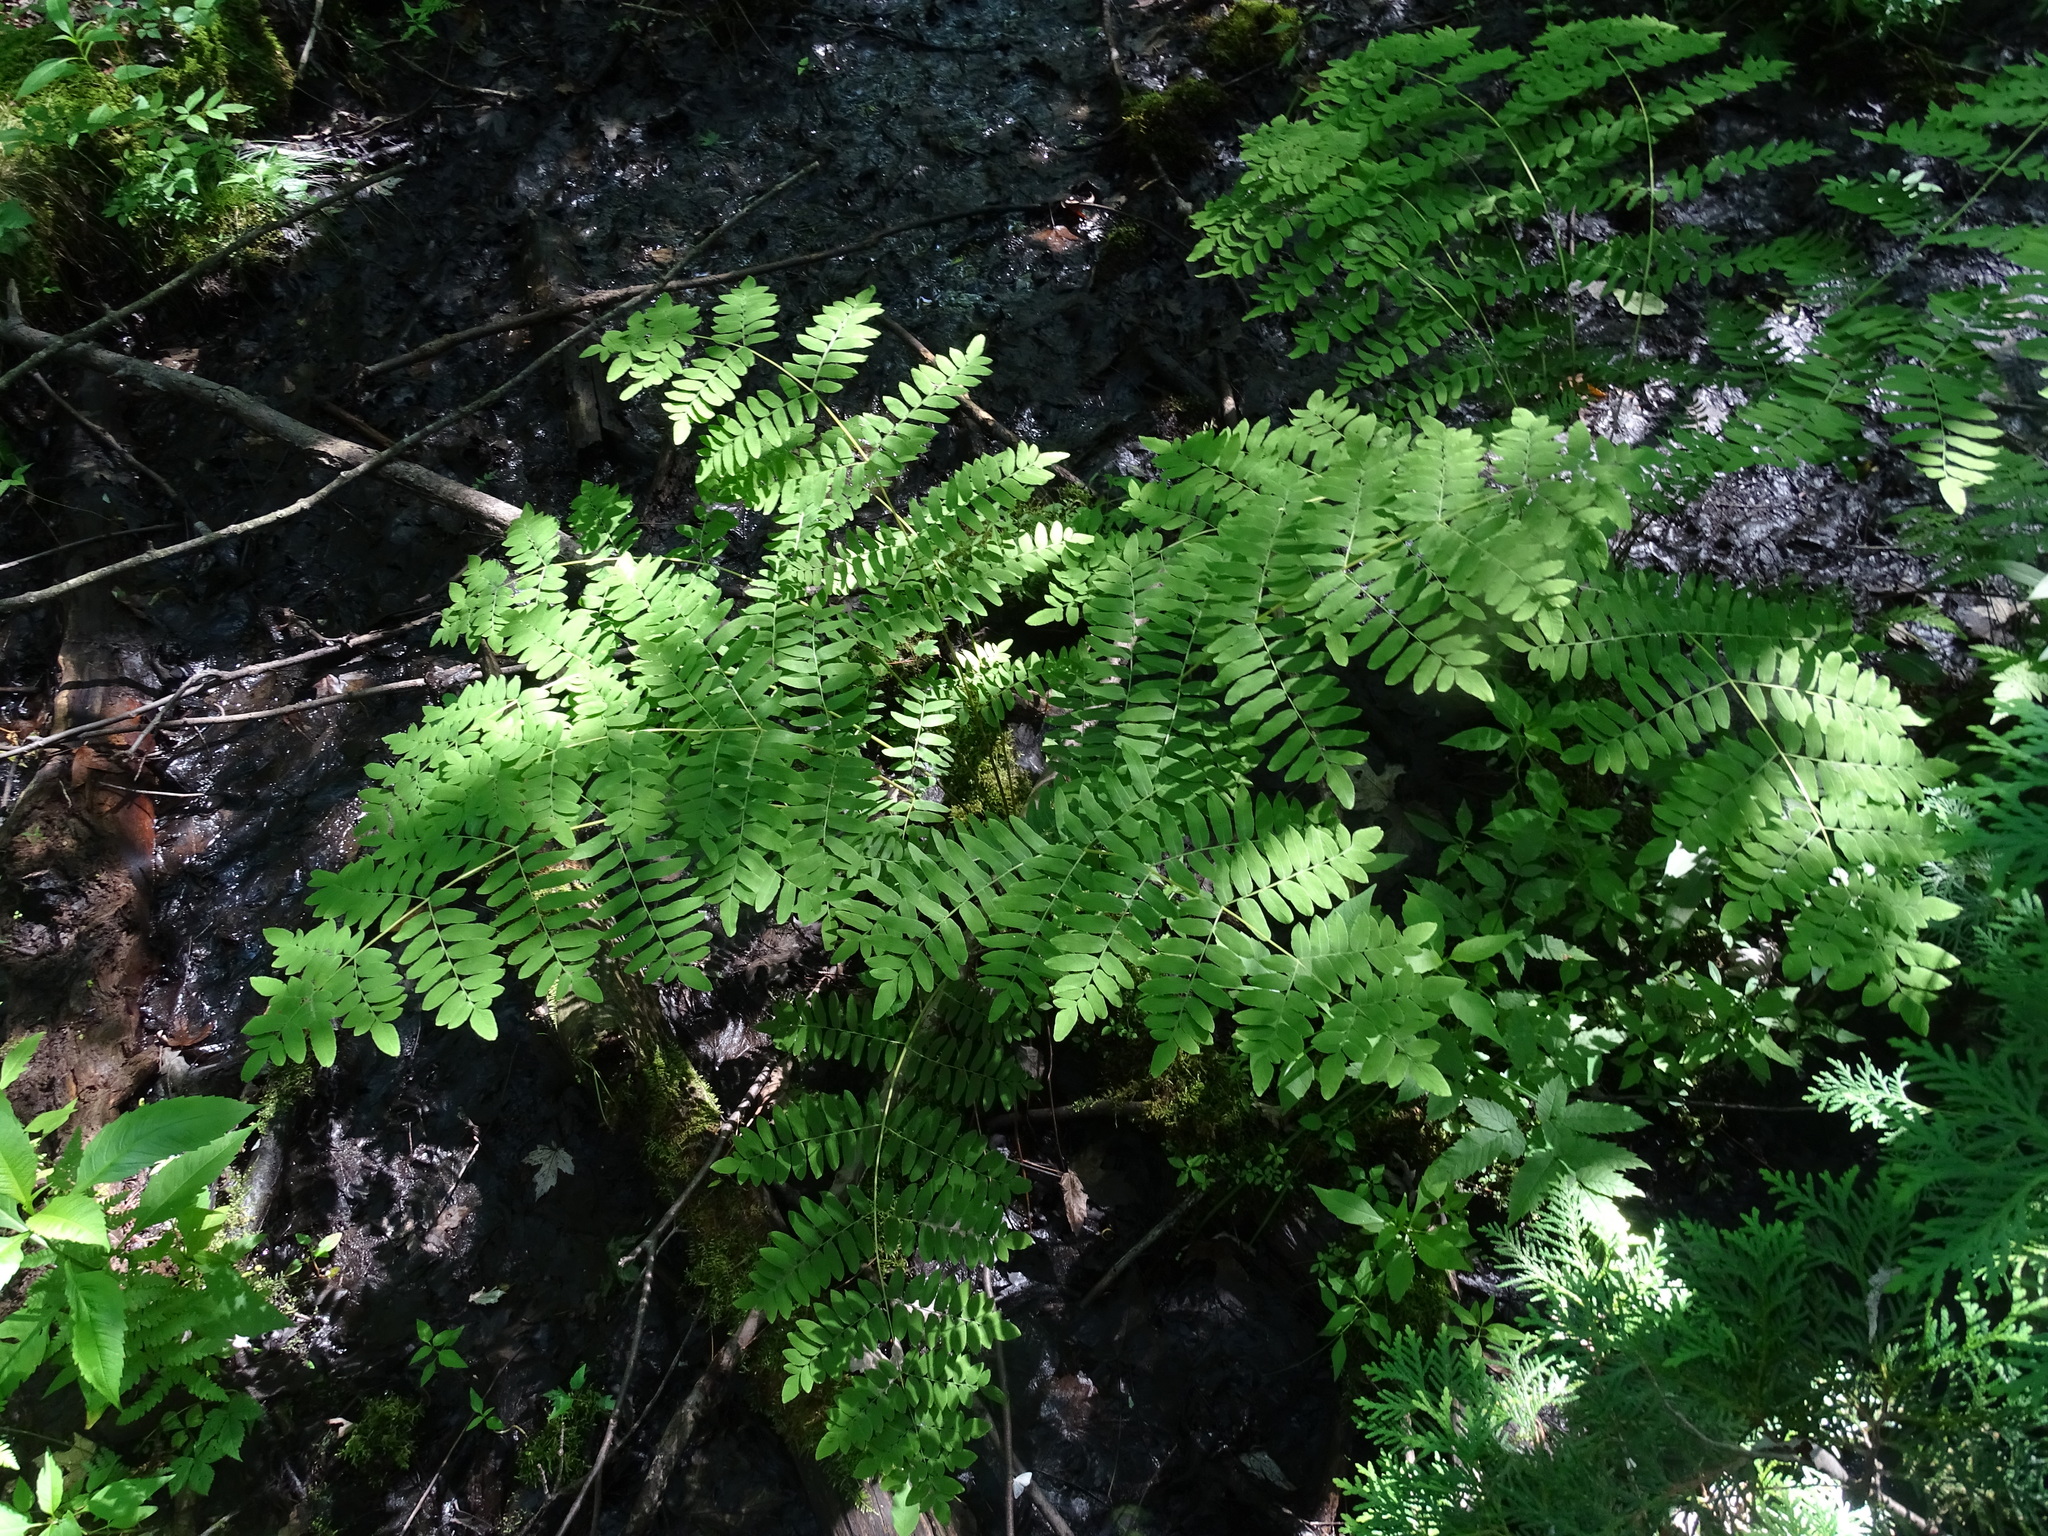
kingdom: Plantae
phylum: Tracheophyta
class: Polypodiopsida
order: Osmundales
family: Osmundaceae
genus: Osmunda
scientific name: Osmunda spectabilis
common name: American royal fern
